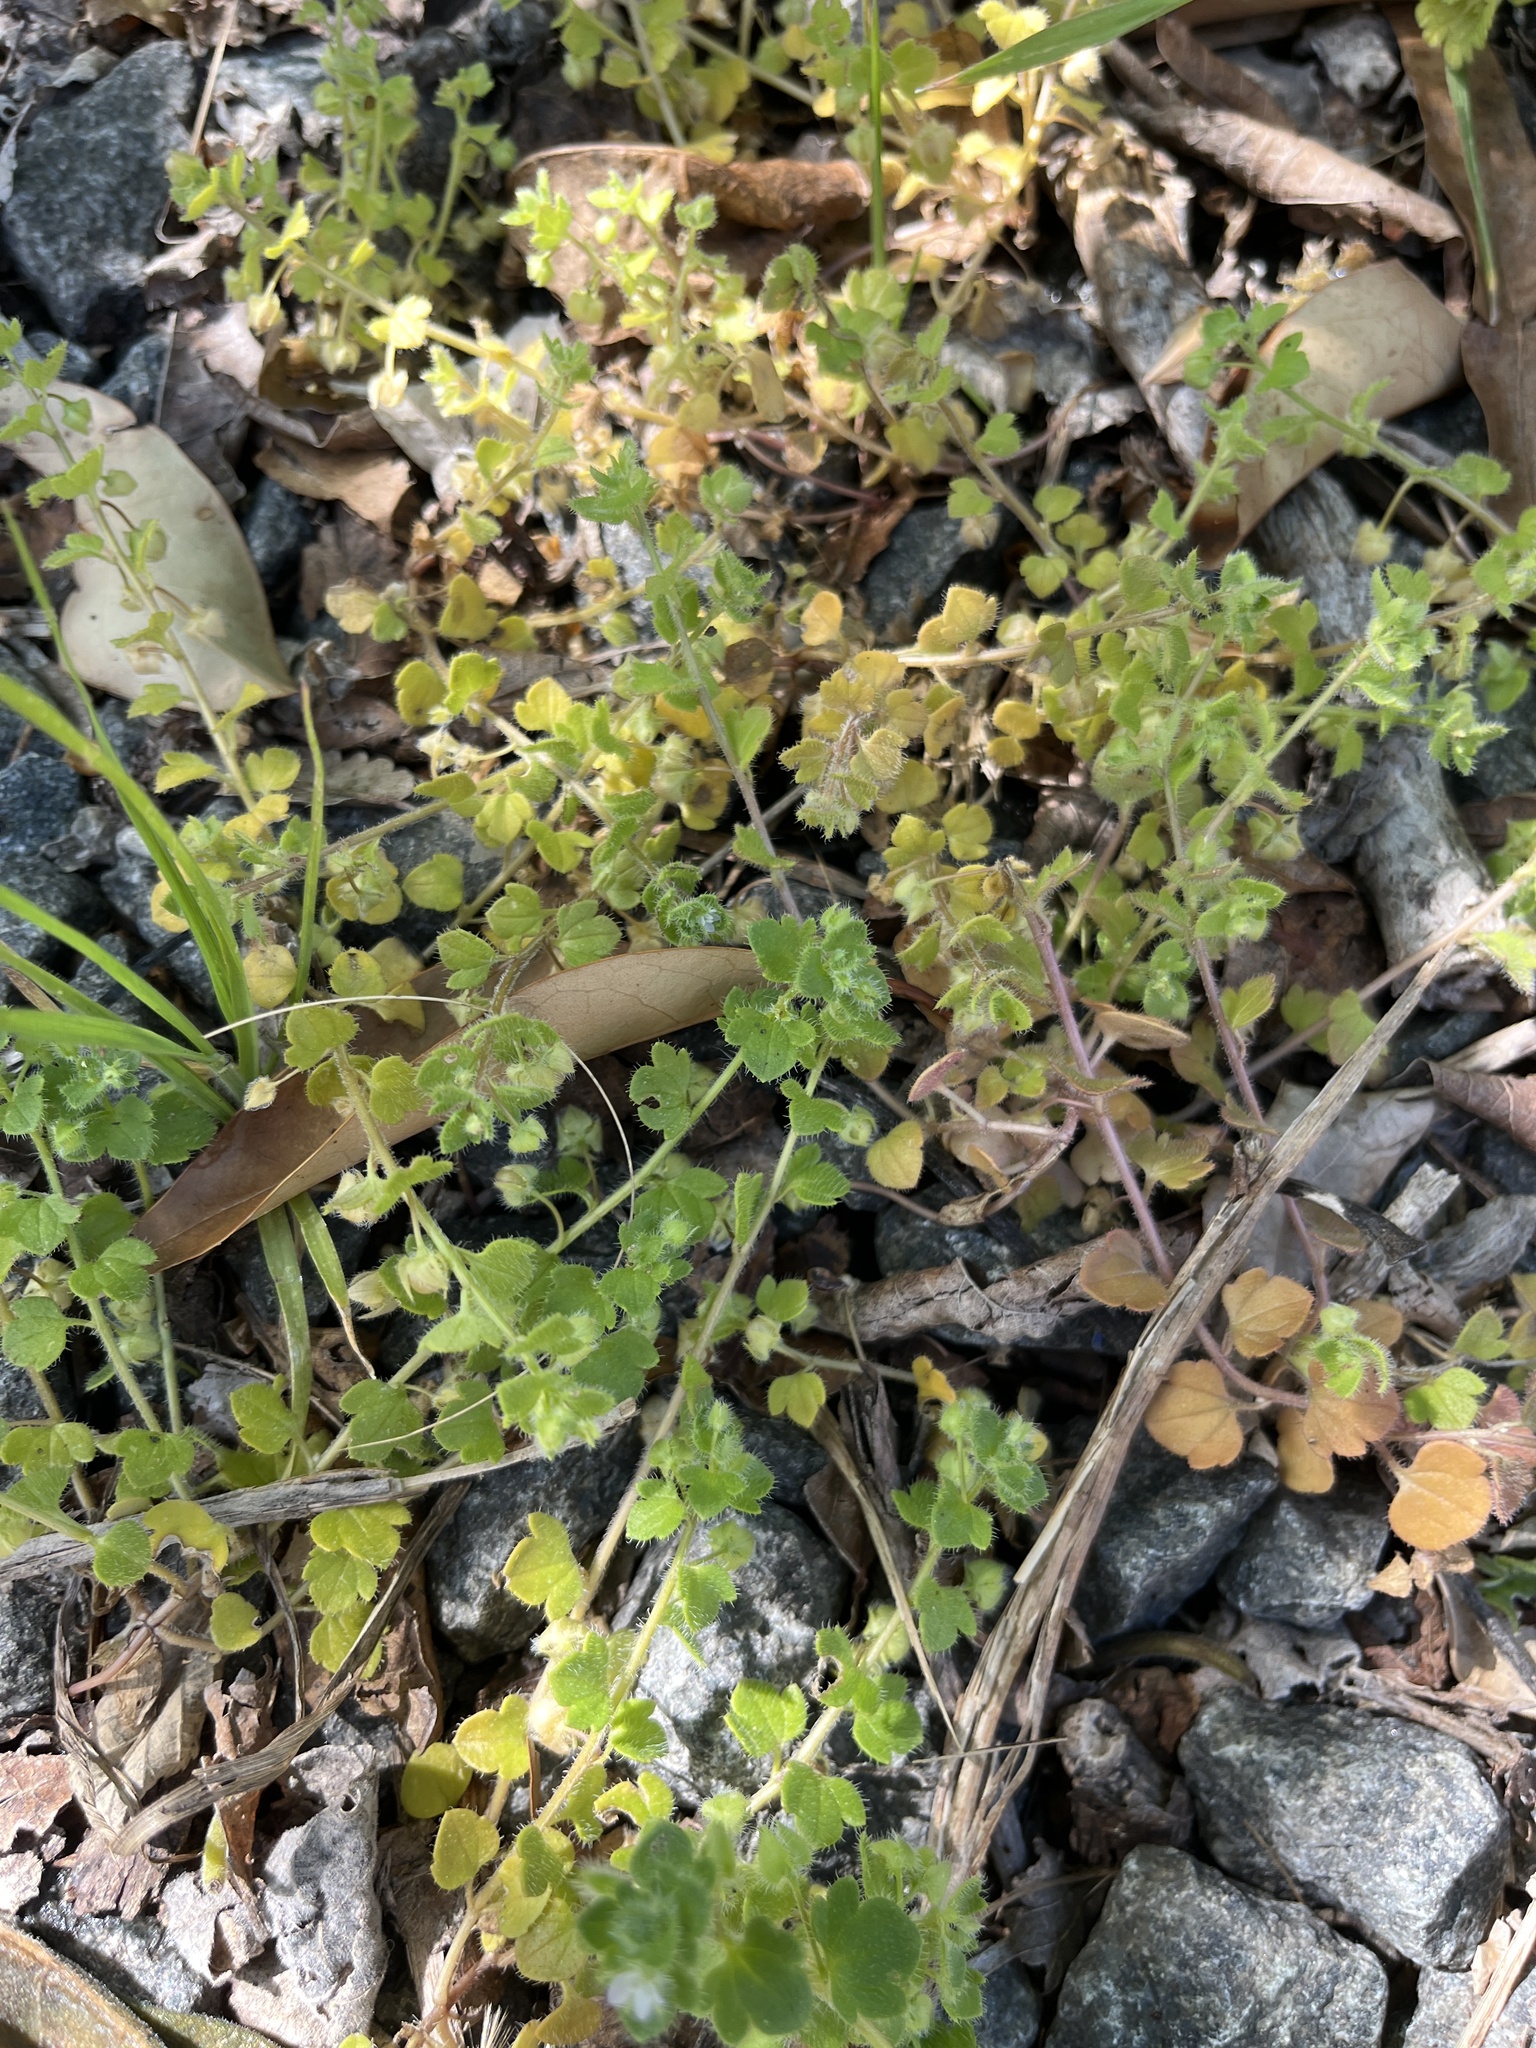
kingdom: Plantae
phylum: Tracheophyta
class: Magnoliopsida
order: Lamiales
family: Plantaginaceae
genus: Veronica
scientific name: Veronica hederifolia
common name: Ivy-leaved speedwell
